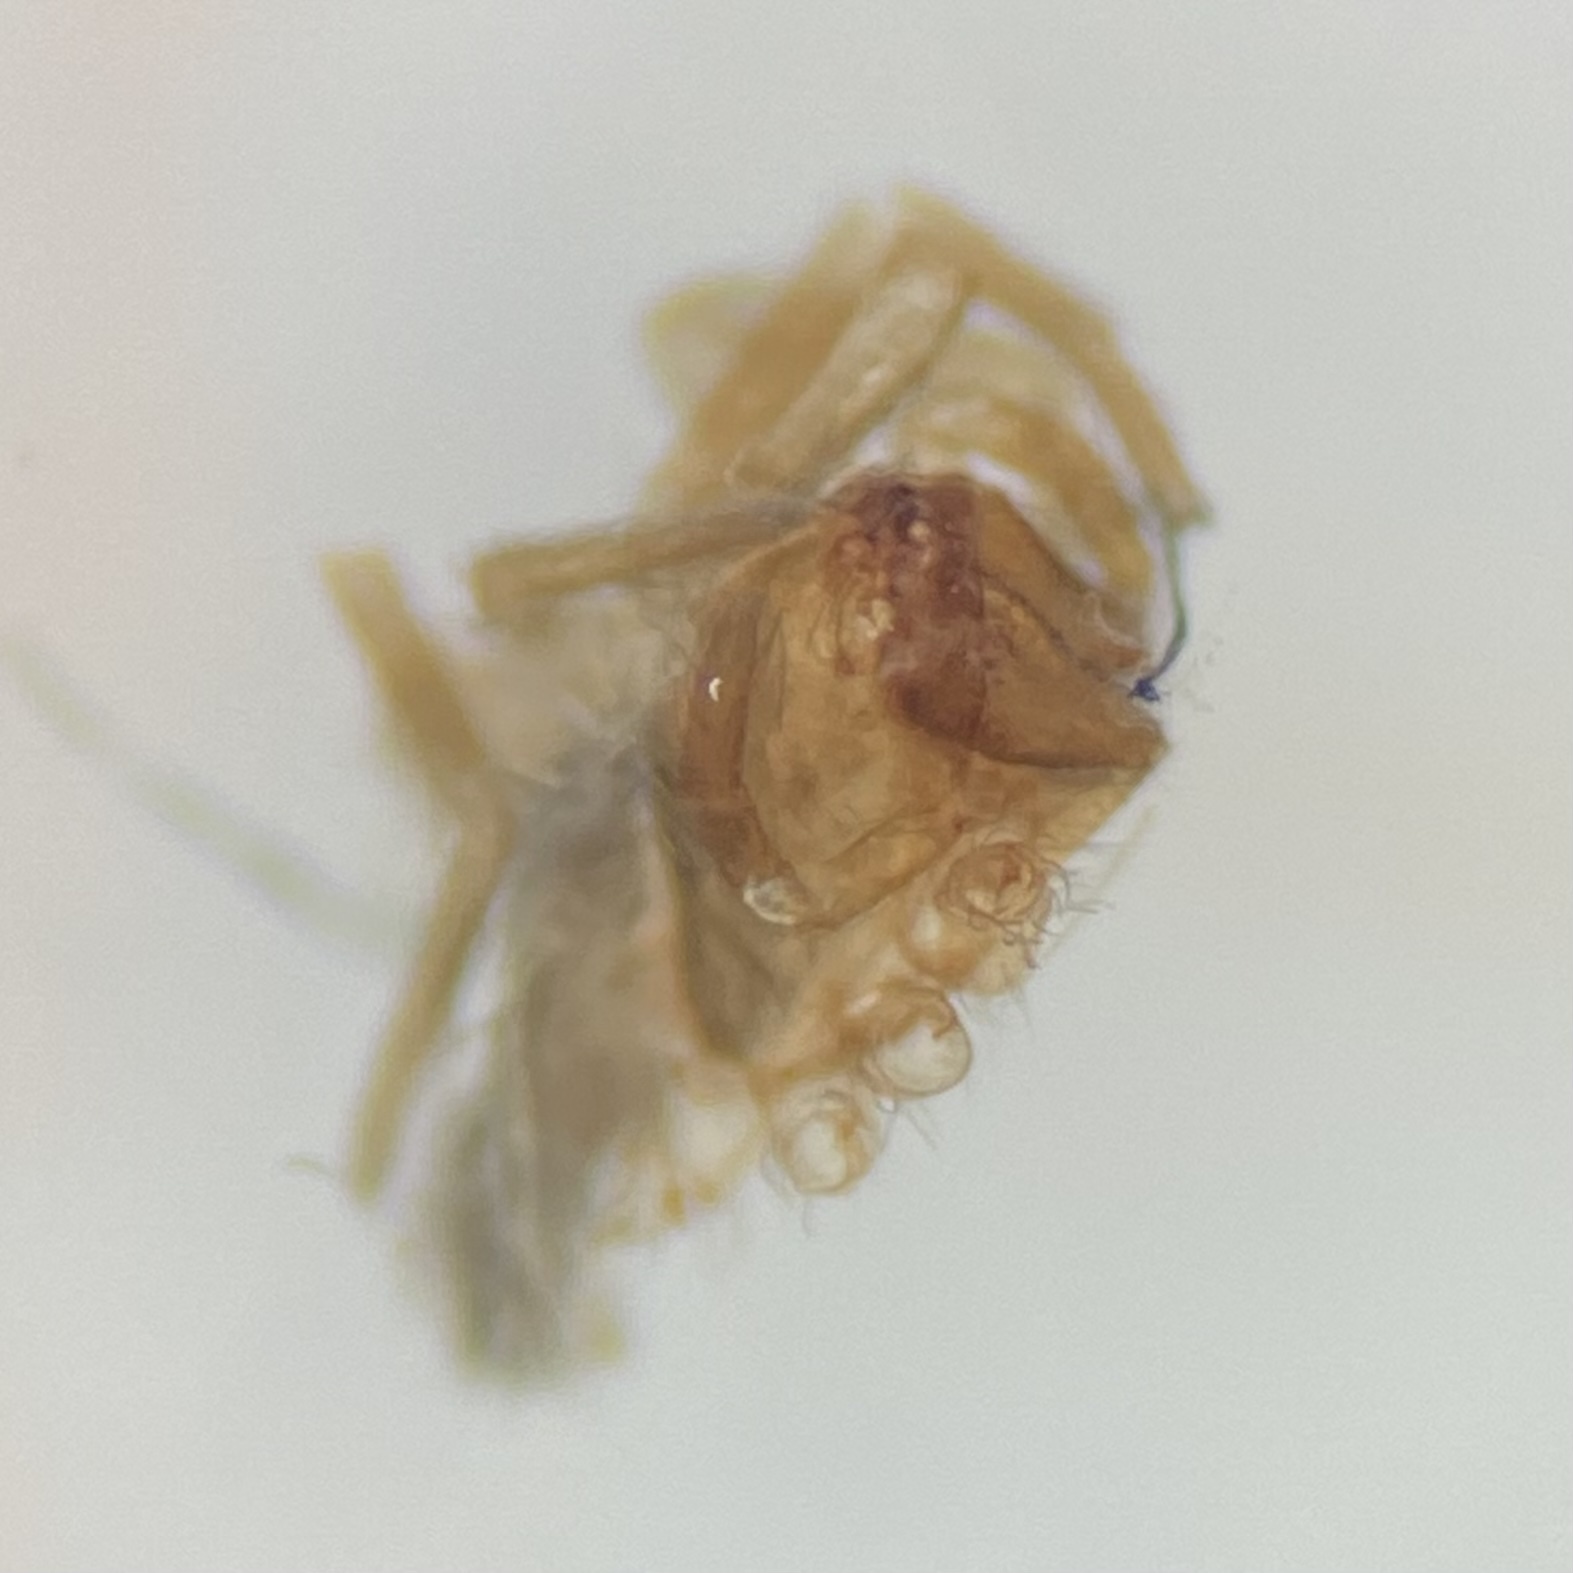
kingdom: Animalia
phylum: Arthropoda
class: Arachnida
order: Araneae
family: Clubionidae
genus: Clubiona
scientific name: Clubiona
